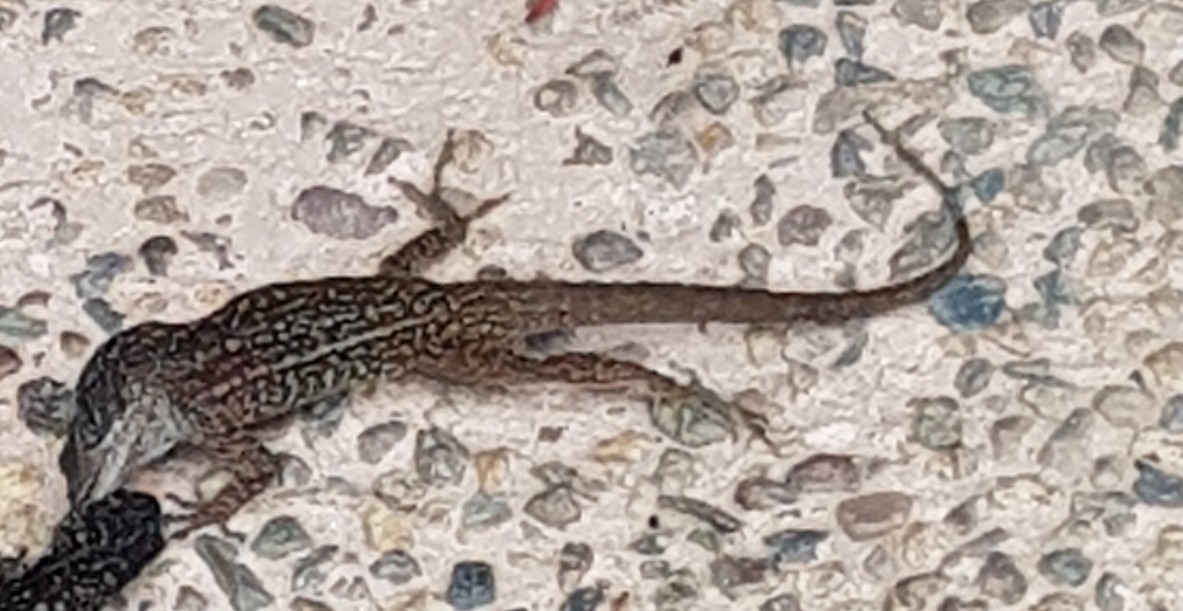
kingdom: Animalia
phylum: Chordata
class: Squamata
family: Dactyloidae
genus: Anolis
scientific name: Anolis sagrei
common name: Brown anole
